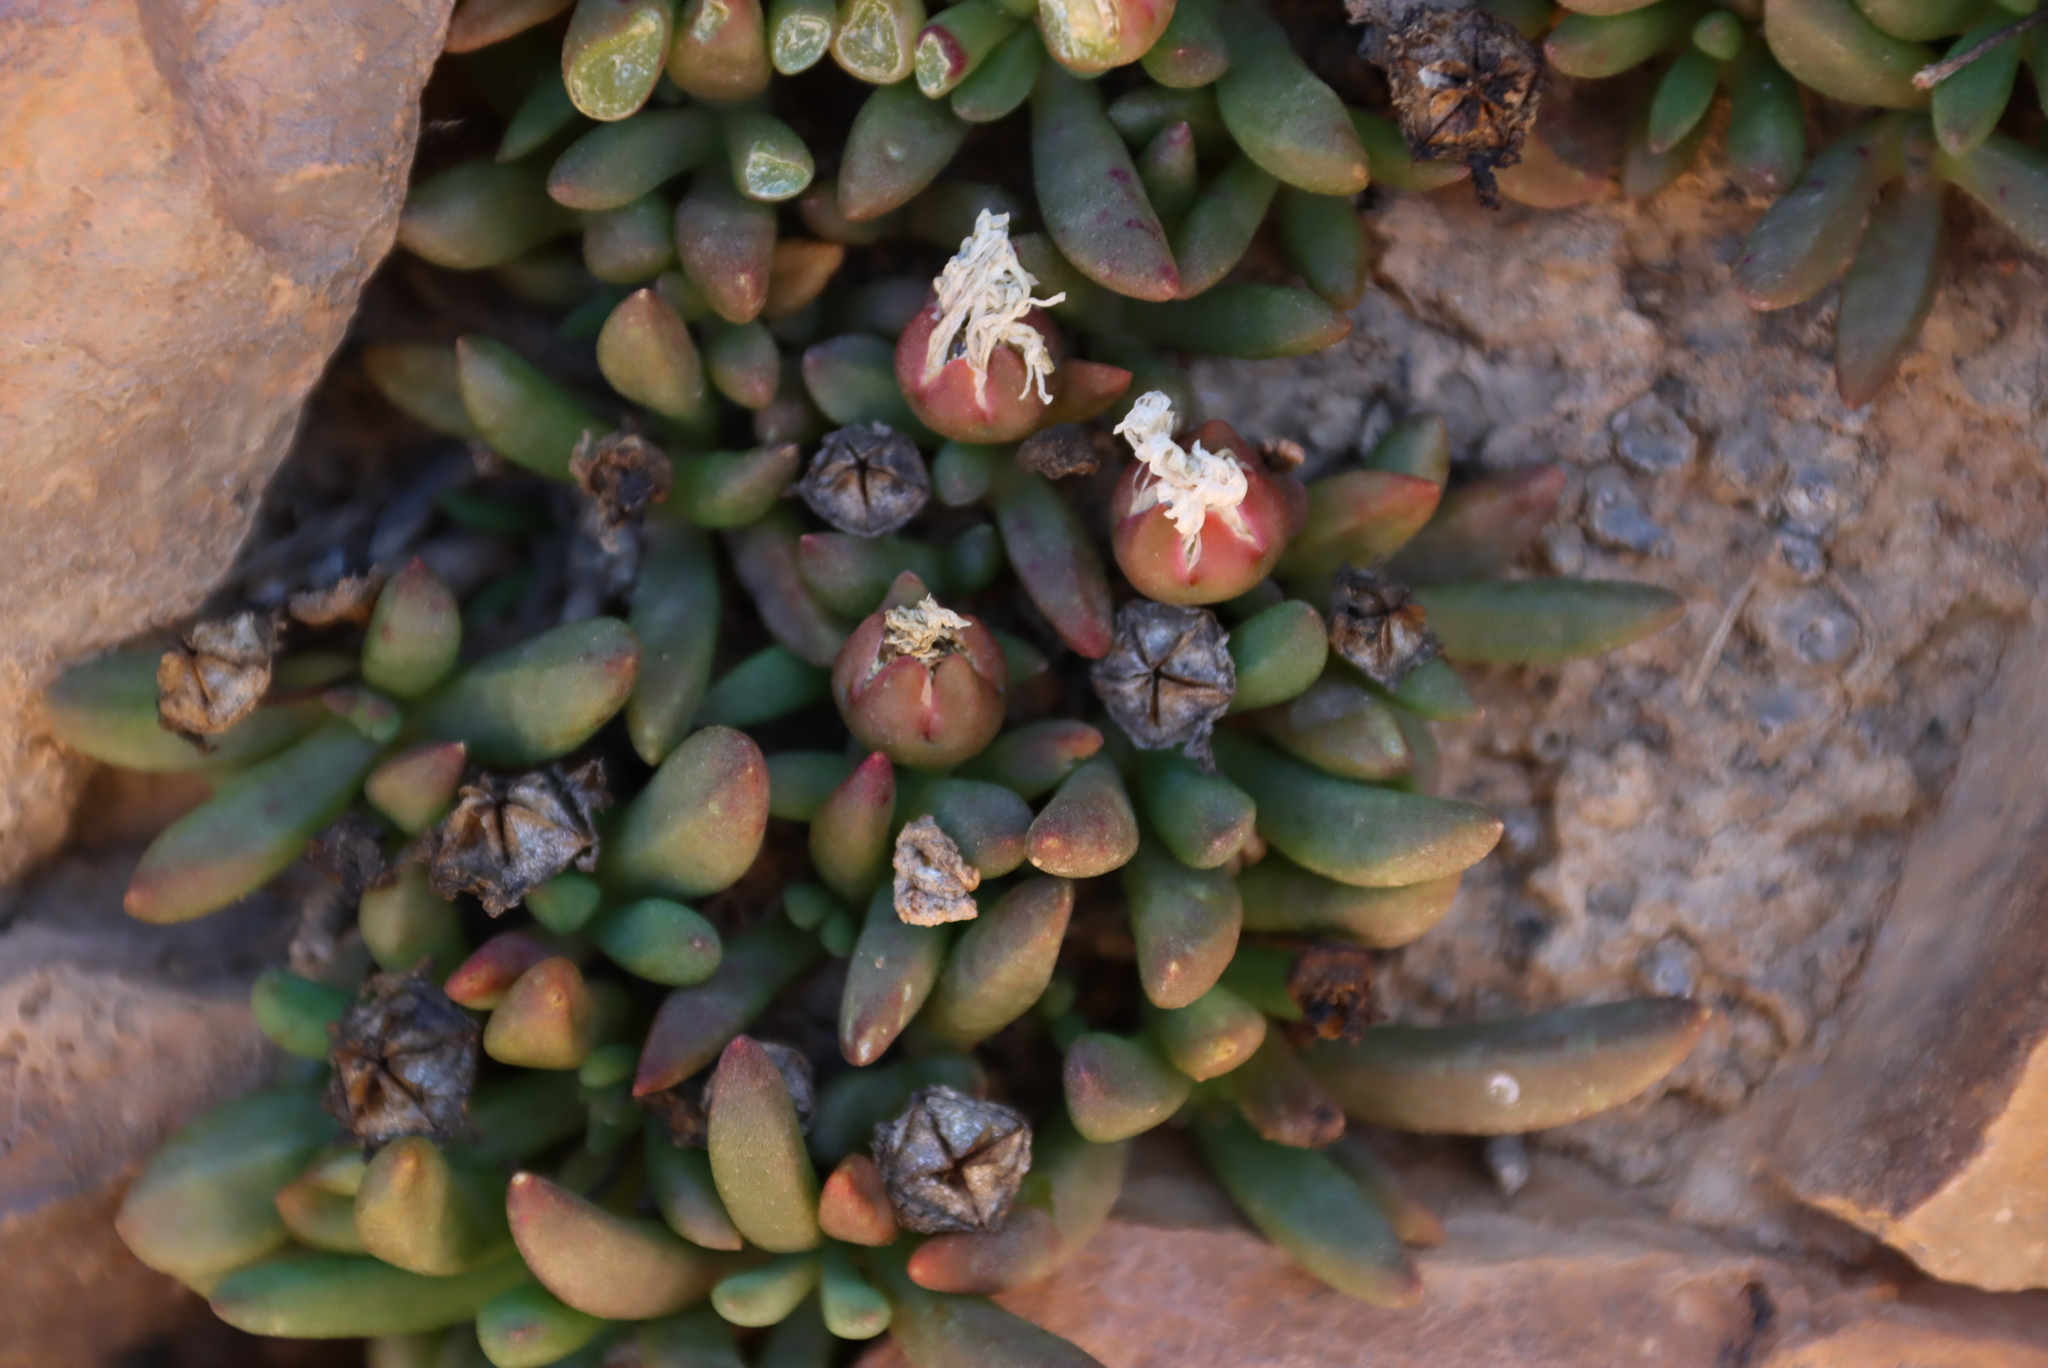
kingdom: Plantae
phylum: Tracheophyta
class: Magnoliopsida
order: Caryophyllales
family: Aizoaceae
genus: Delosperma
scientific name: Delosperma esterhuyseniae
